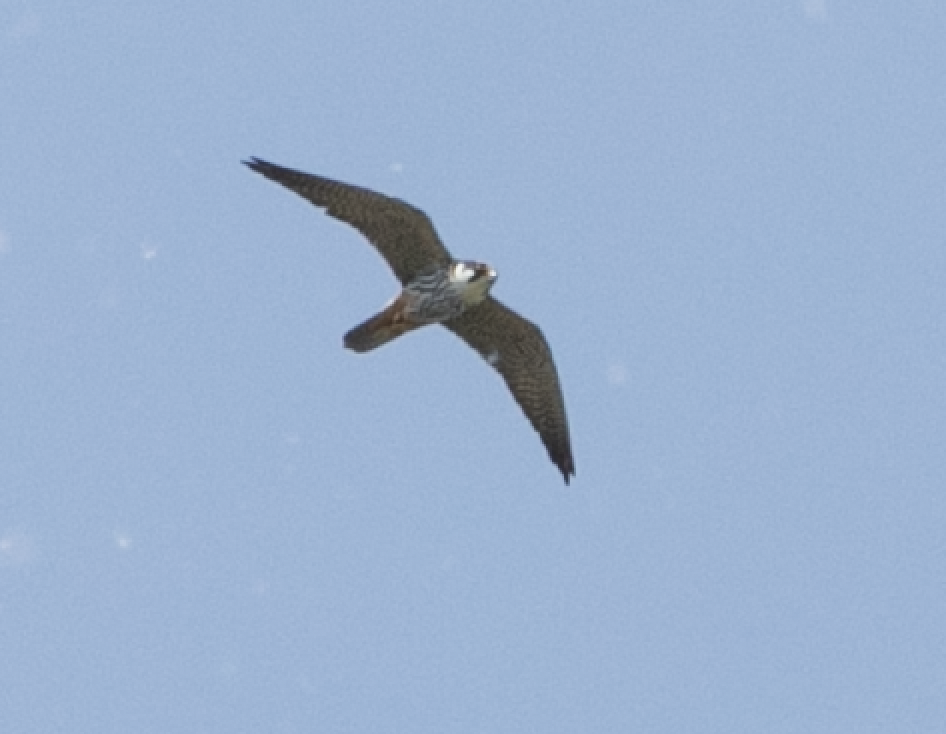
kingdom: Animalia
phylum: Chordata
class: Aves
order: Falconiformes
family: Falconidae
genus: Falco
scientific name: Falco subbuteo
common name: Eurasian hobby
